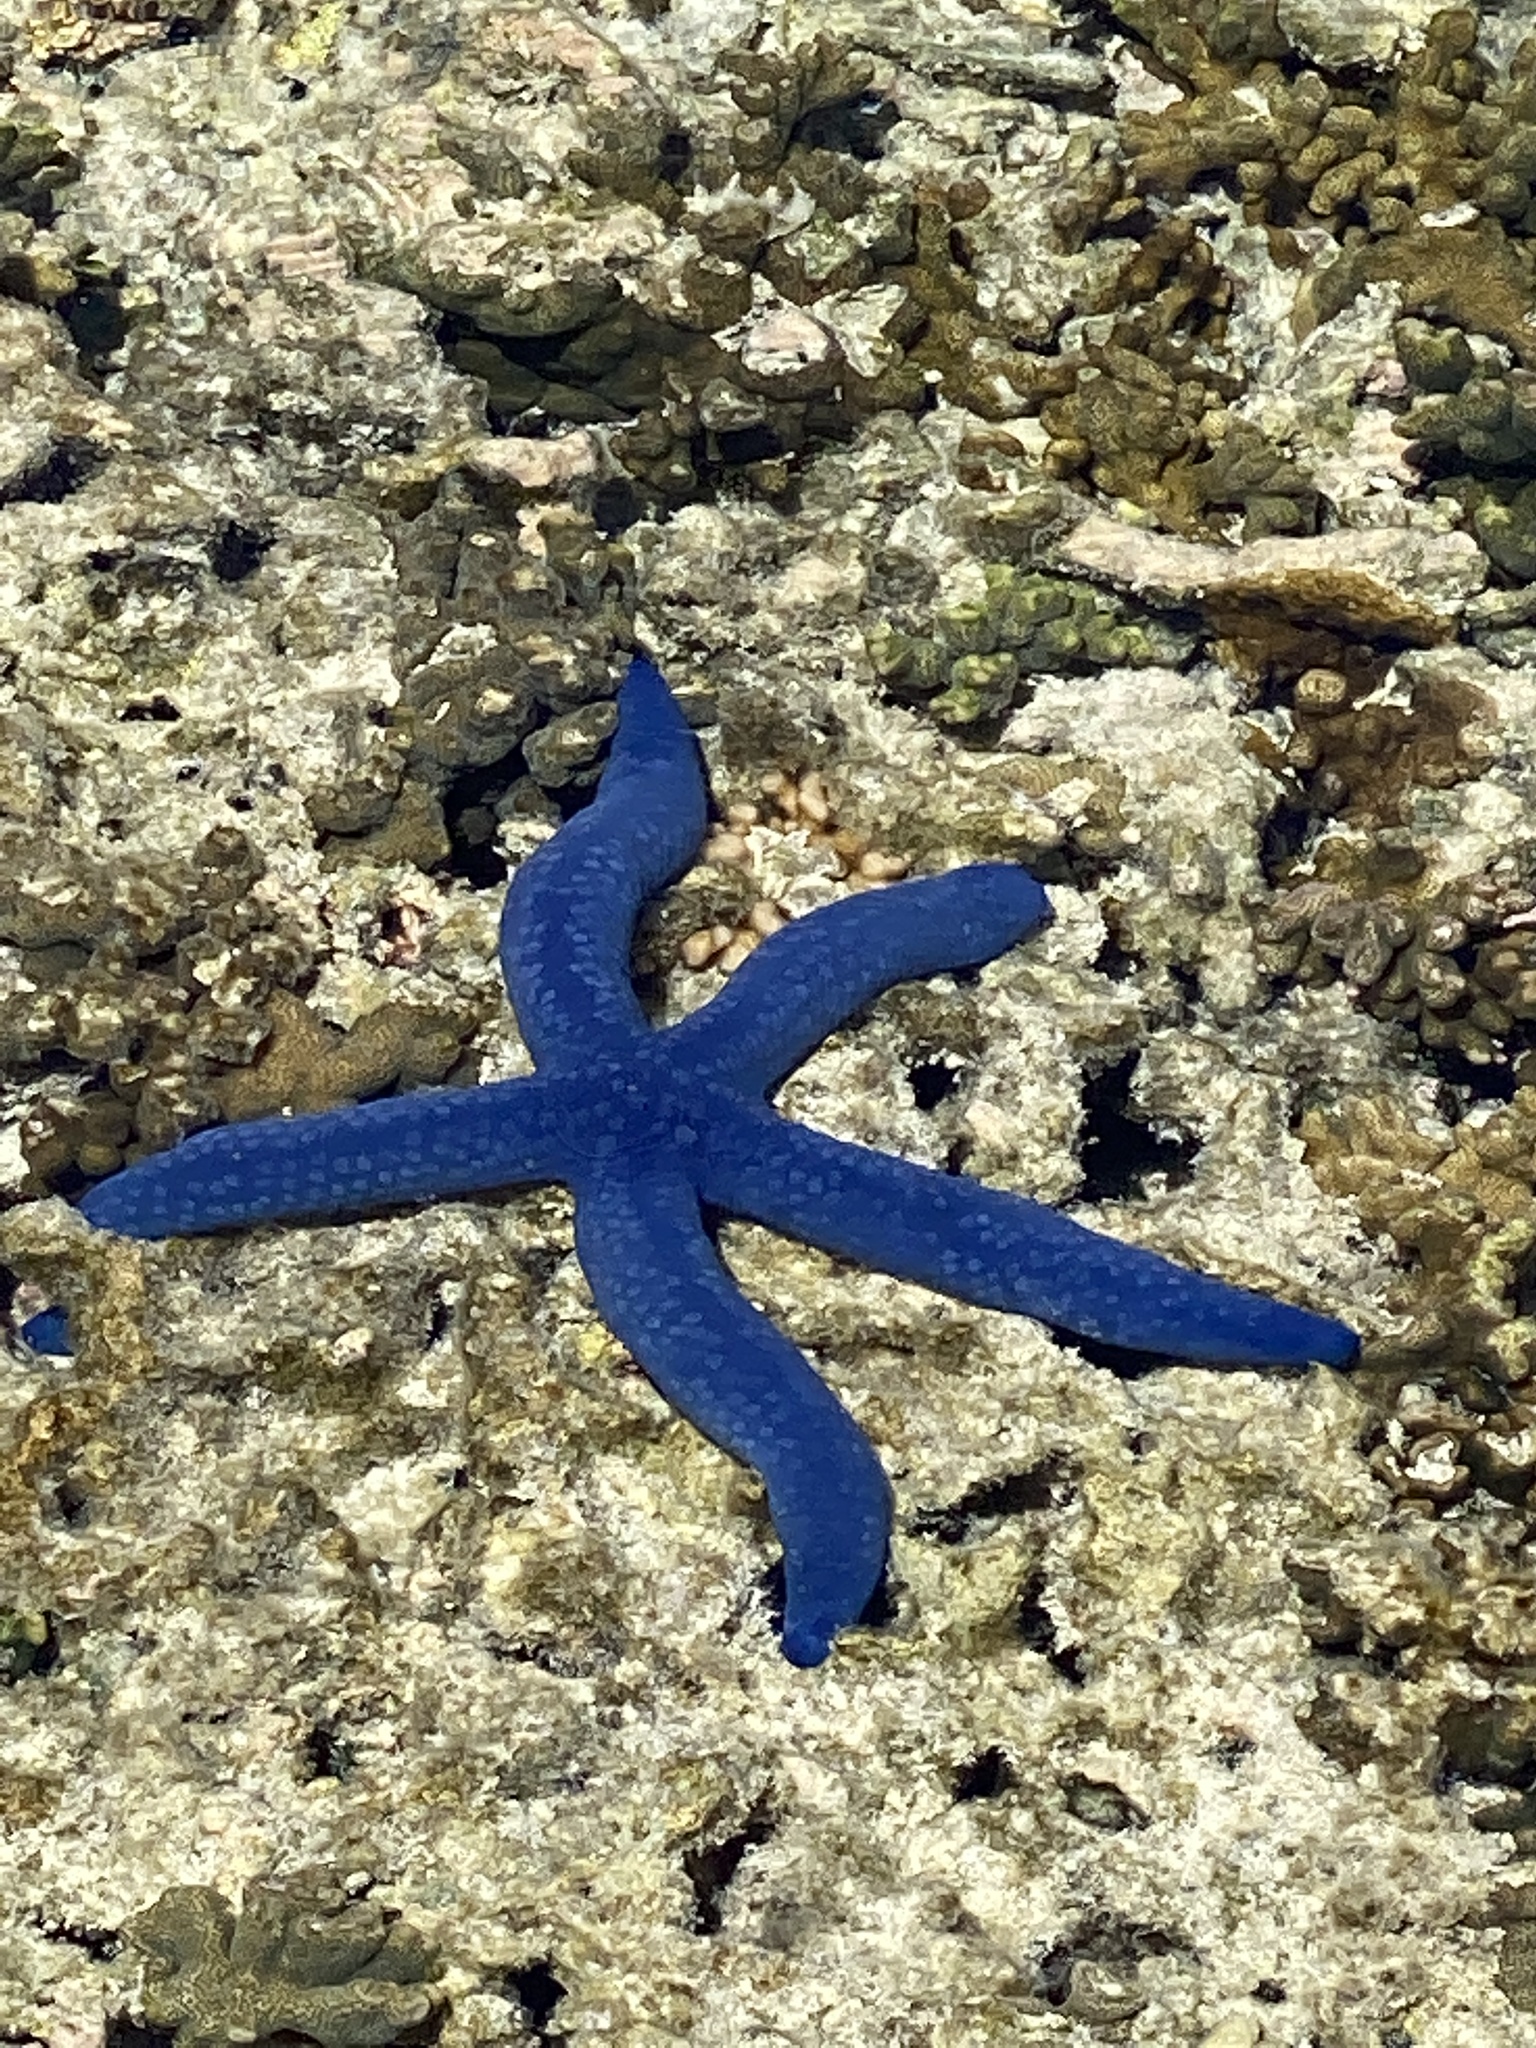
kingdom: Animalia
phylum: Echinodermata
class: Asteroidea
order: Valvatida
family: Ophidiasteridae
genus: Linckia
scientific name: Linckia laevigata
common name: Azure sea star
